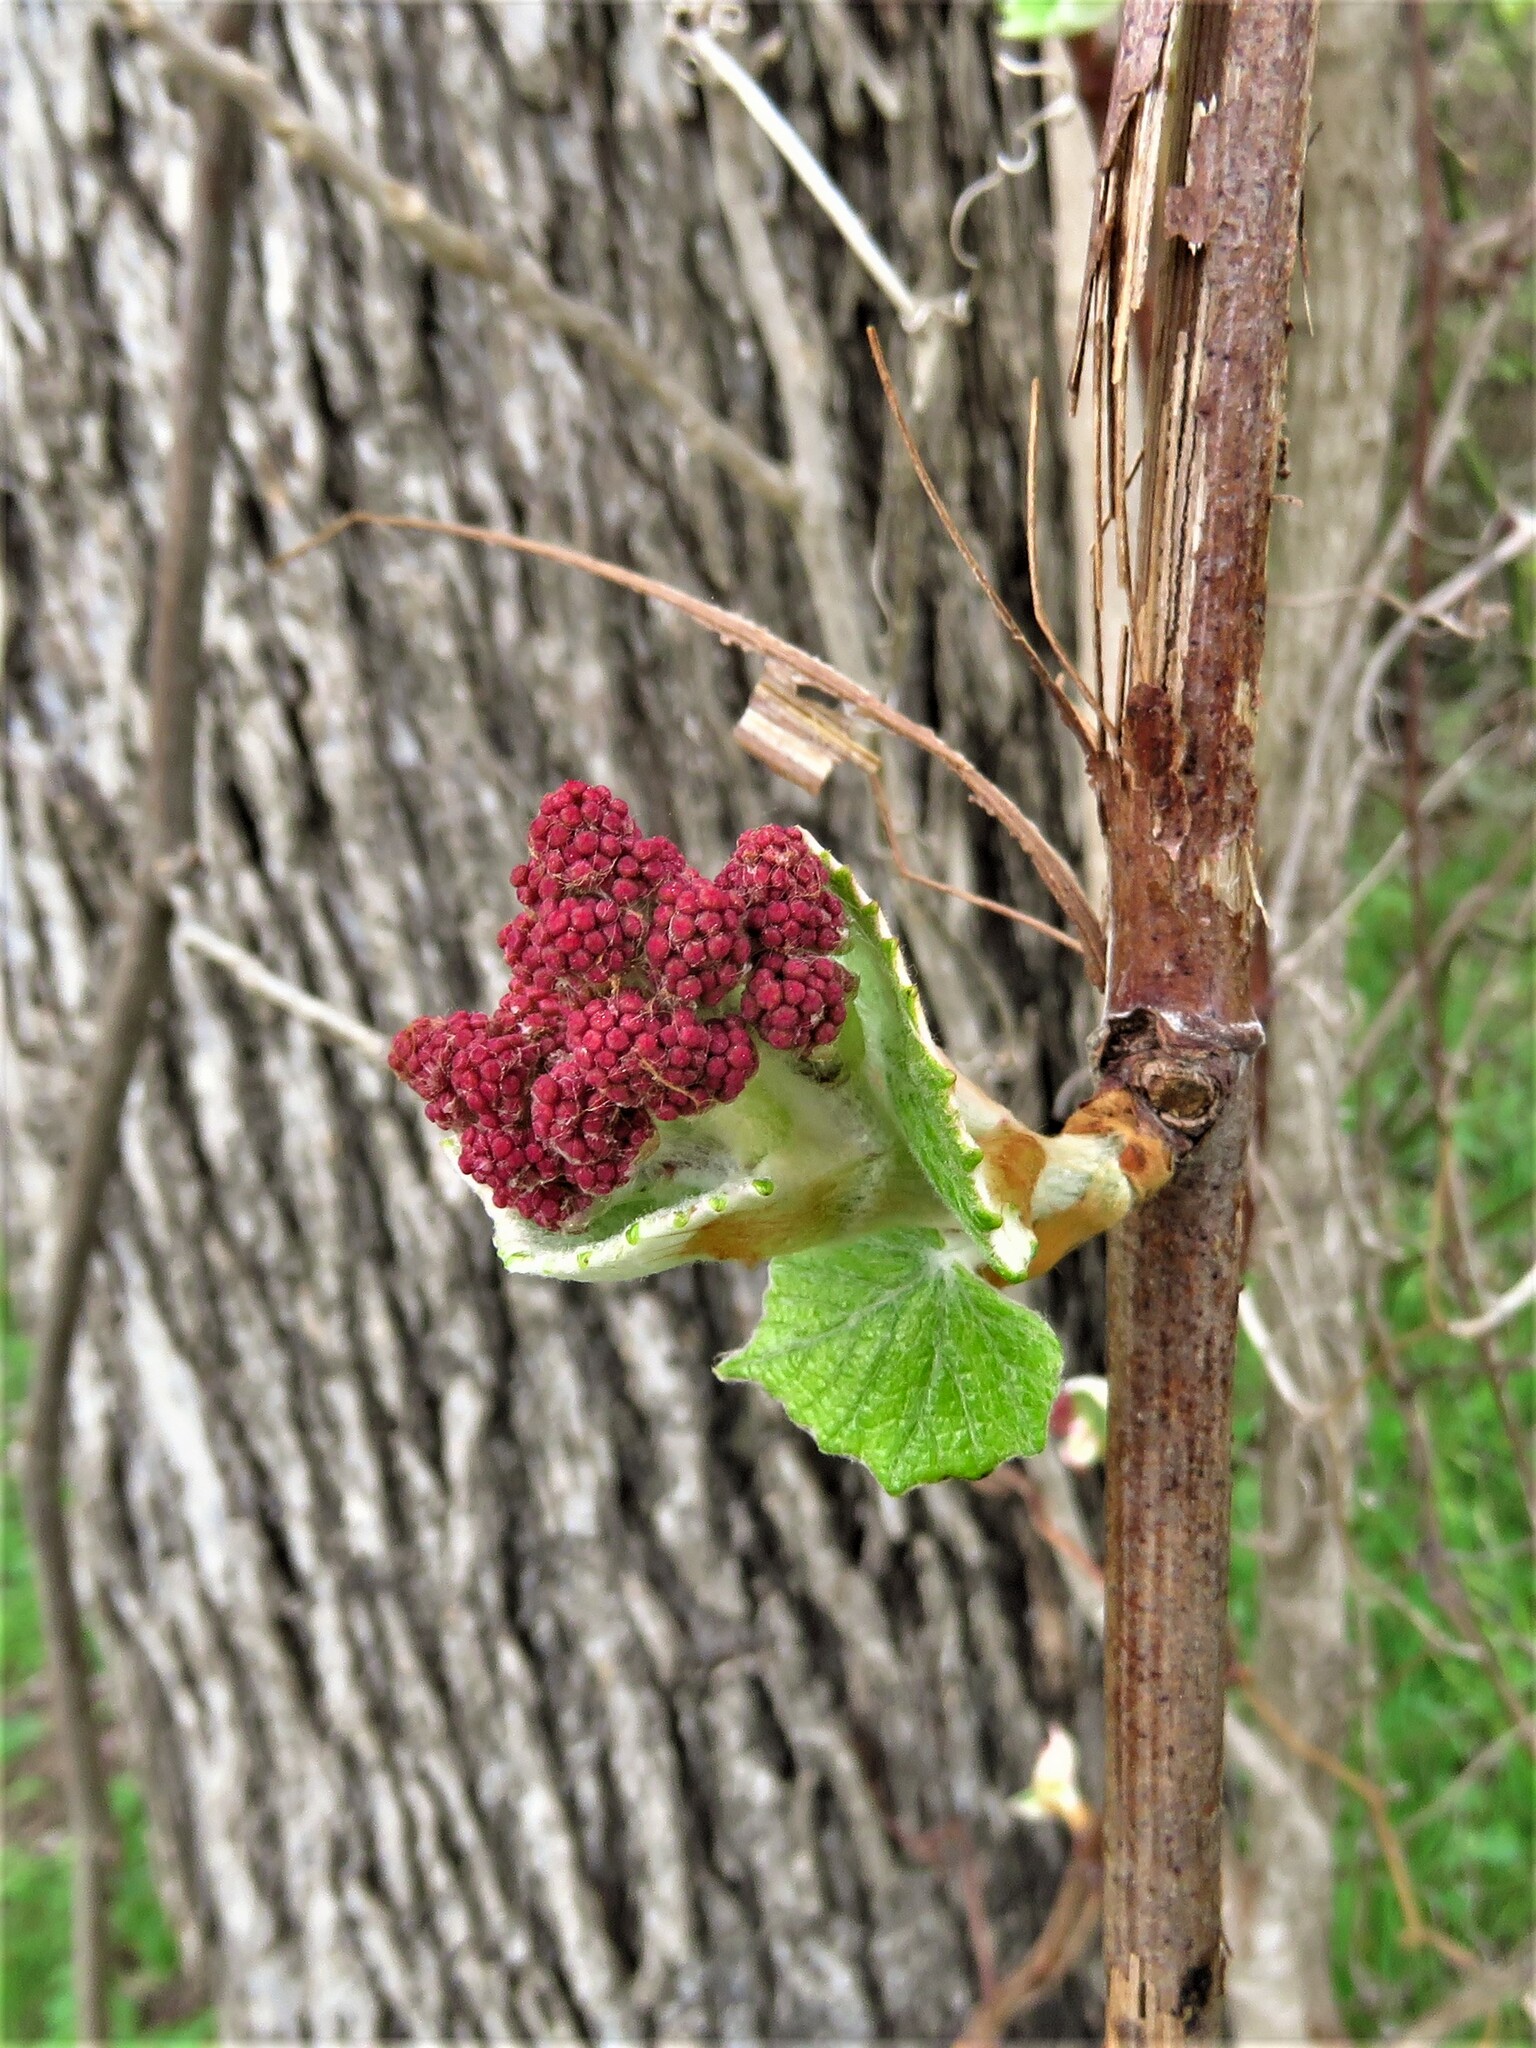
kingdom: Plantae
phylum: Tracheophyta
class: Magnoliopsida
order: Vitales
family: Vitaceae
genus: Vitis
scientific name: Vitis mustangensis
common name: Mustang grape
